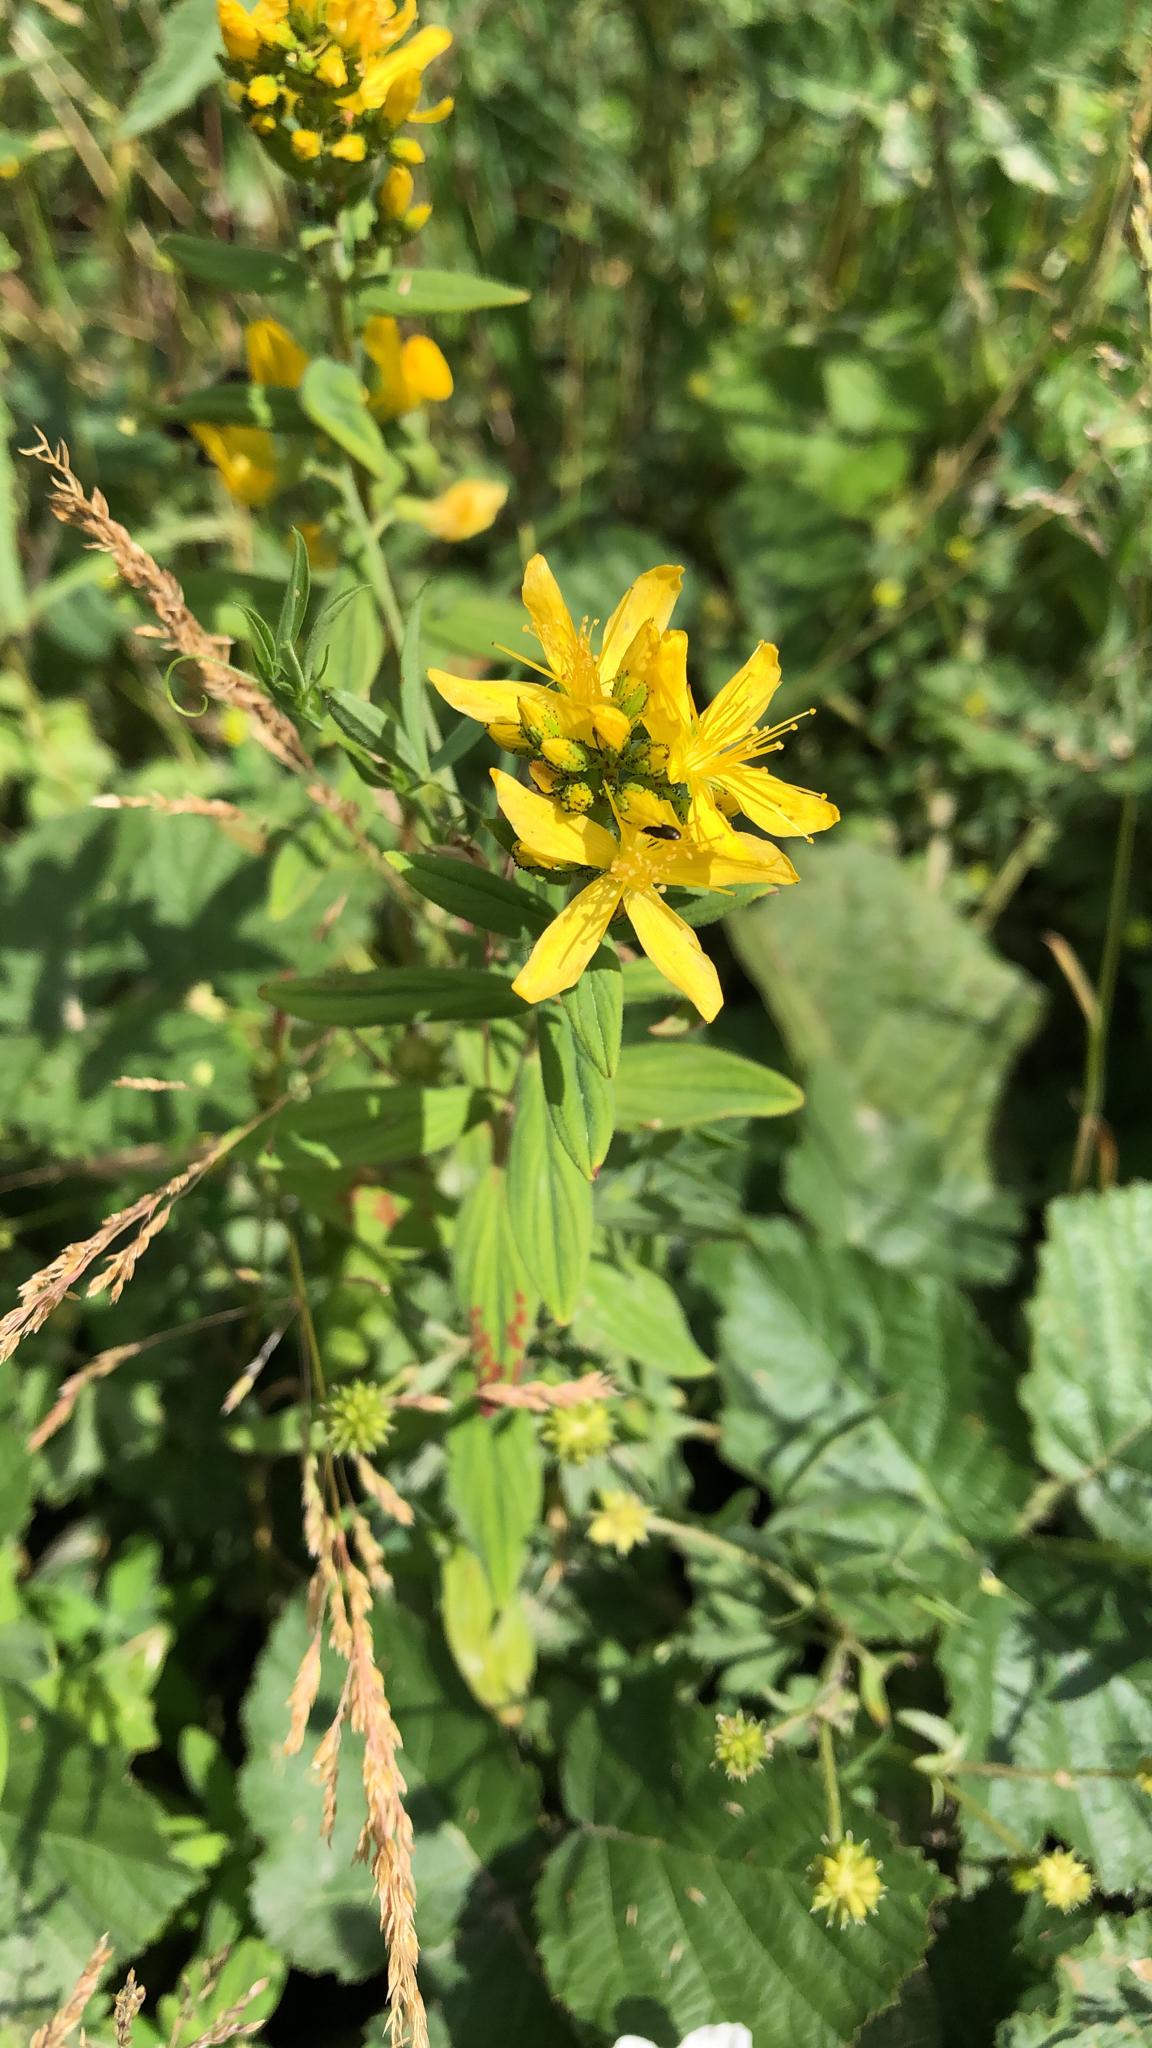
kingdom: Plantae
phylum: Tracheophyta
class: Magnoliopsida
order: Malpighiales
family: Hypericaceae
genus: Hypericum
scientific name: Hypericum hirsutum
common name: Hairy st. john's-wort
